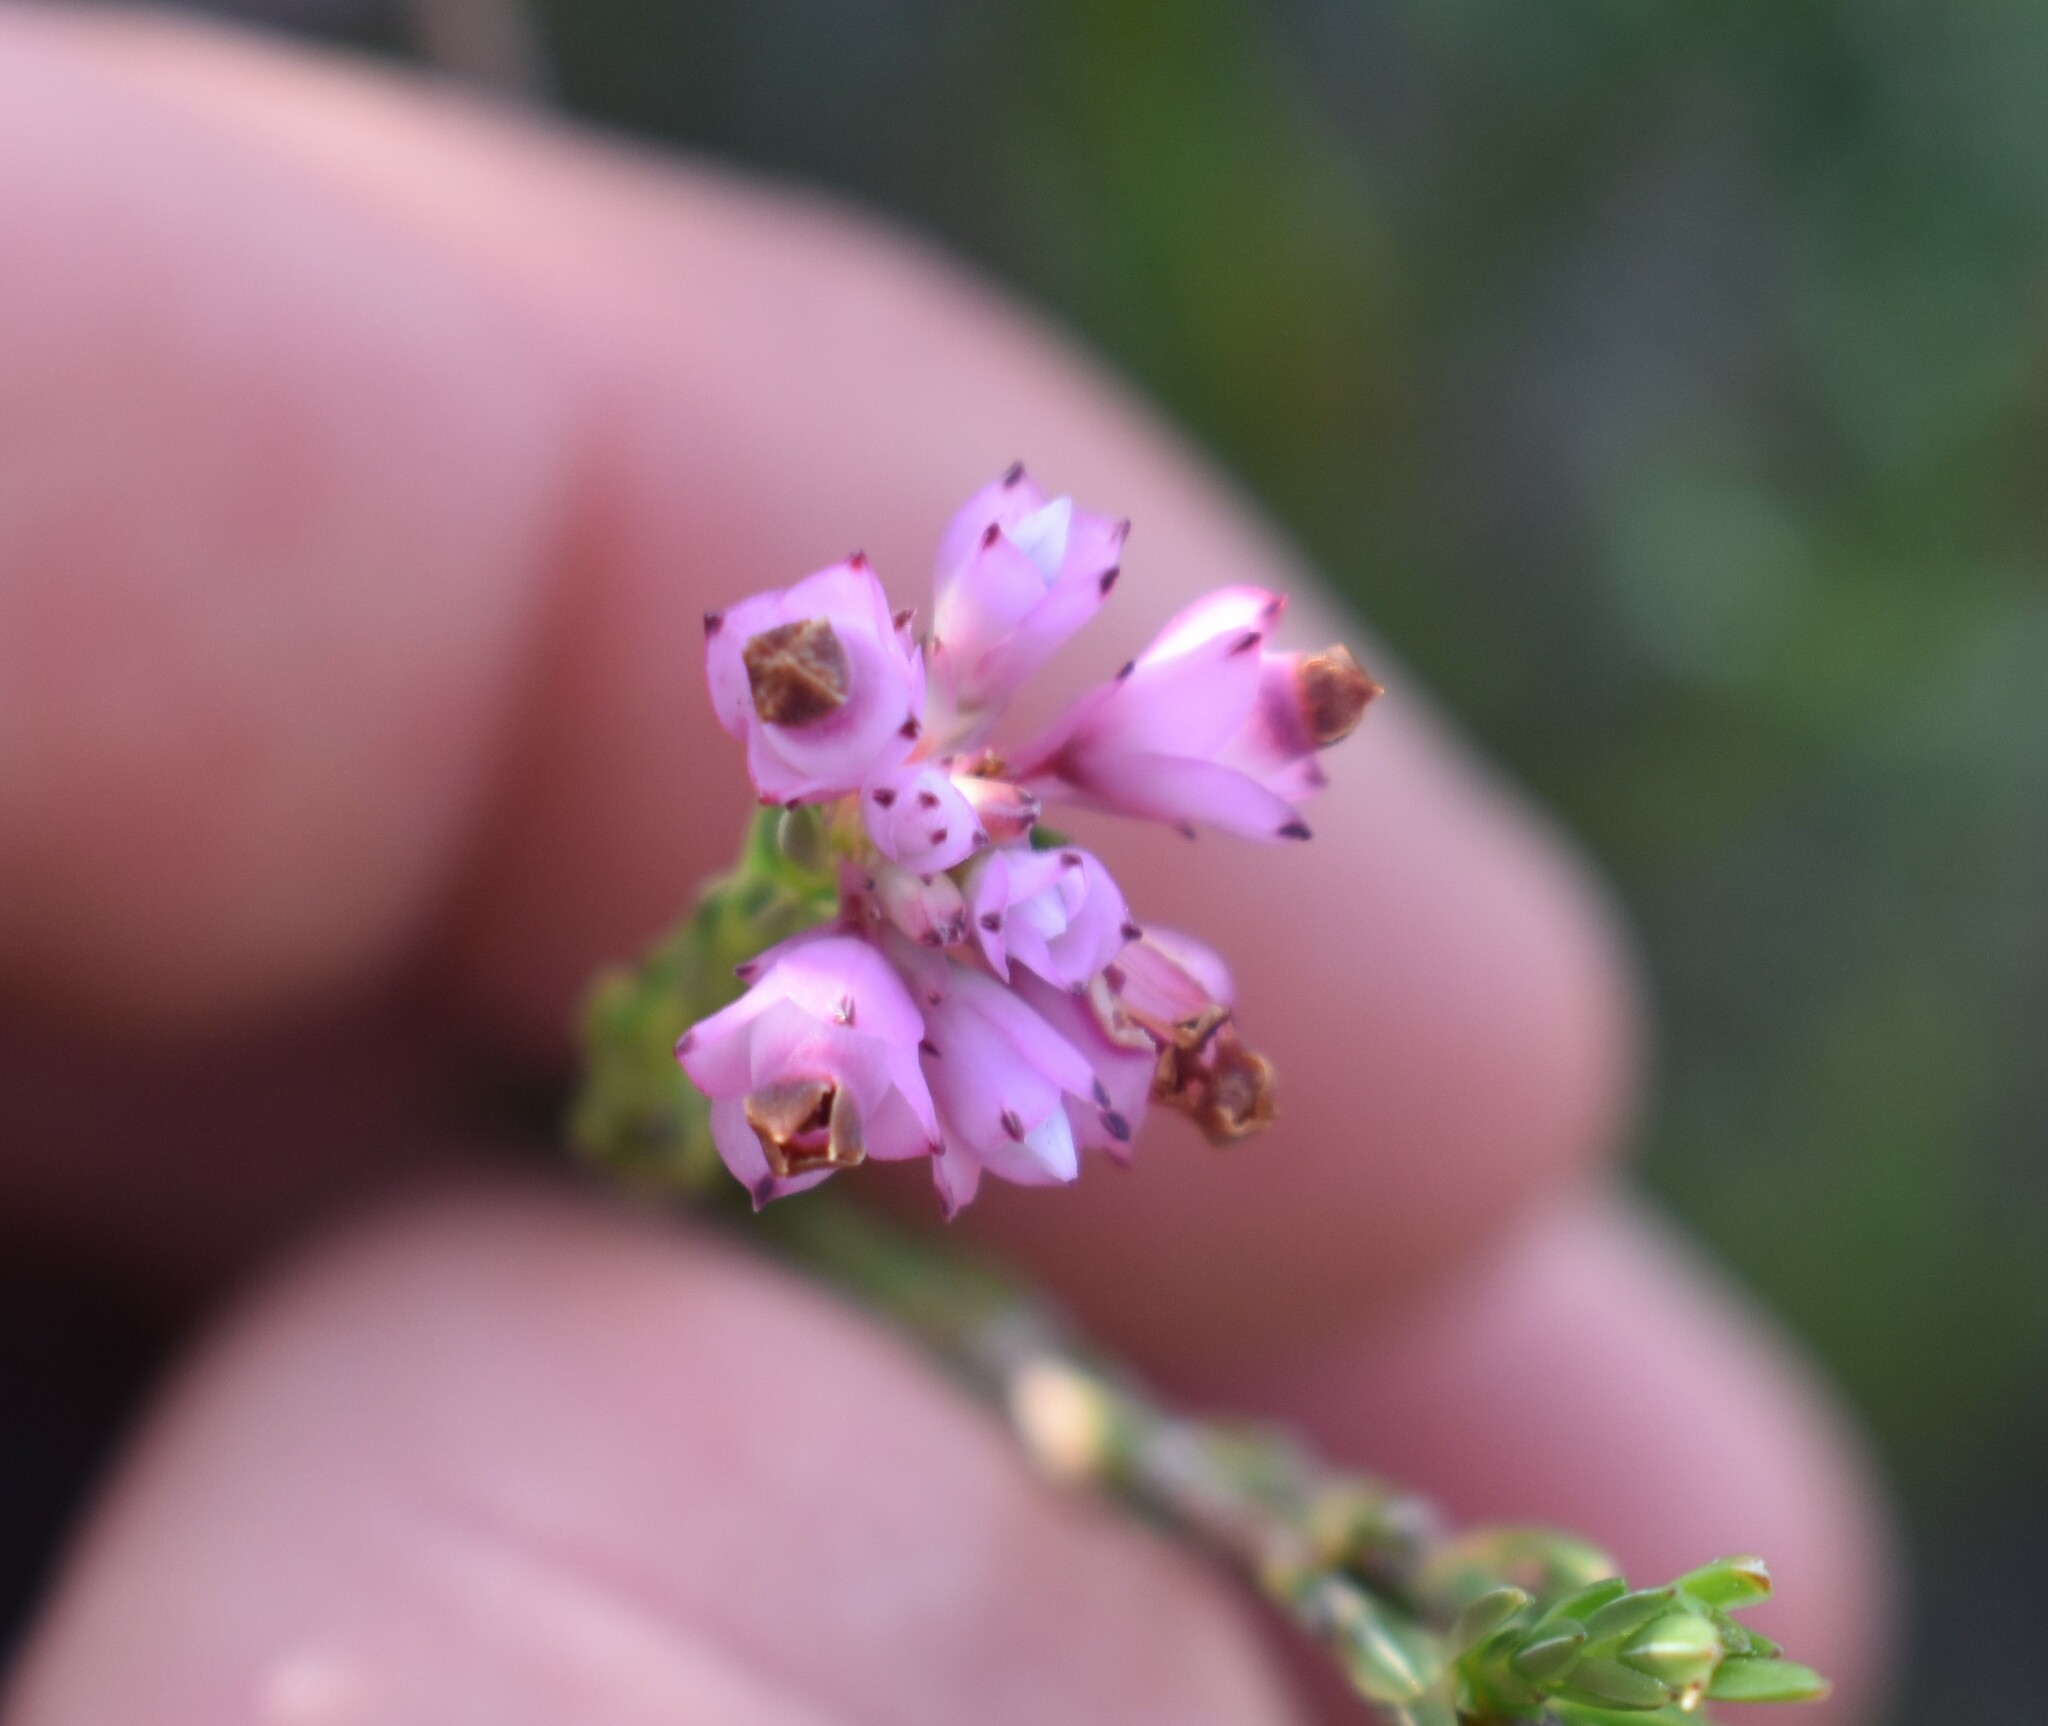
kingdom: Plantae
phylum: Tracheophyta
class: Magnoliopsida
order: Ericales
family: Ericaceae
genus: Erica
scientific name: Erica corifolia
